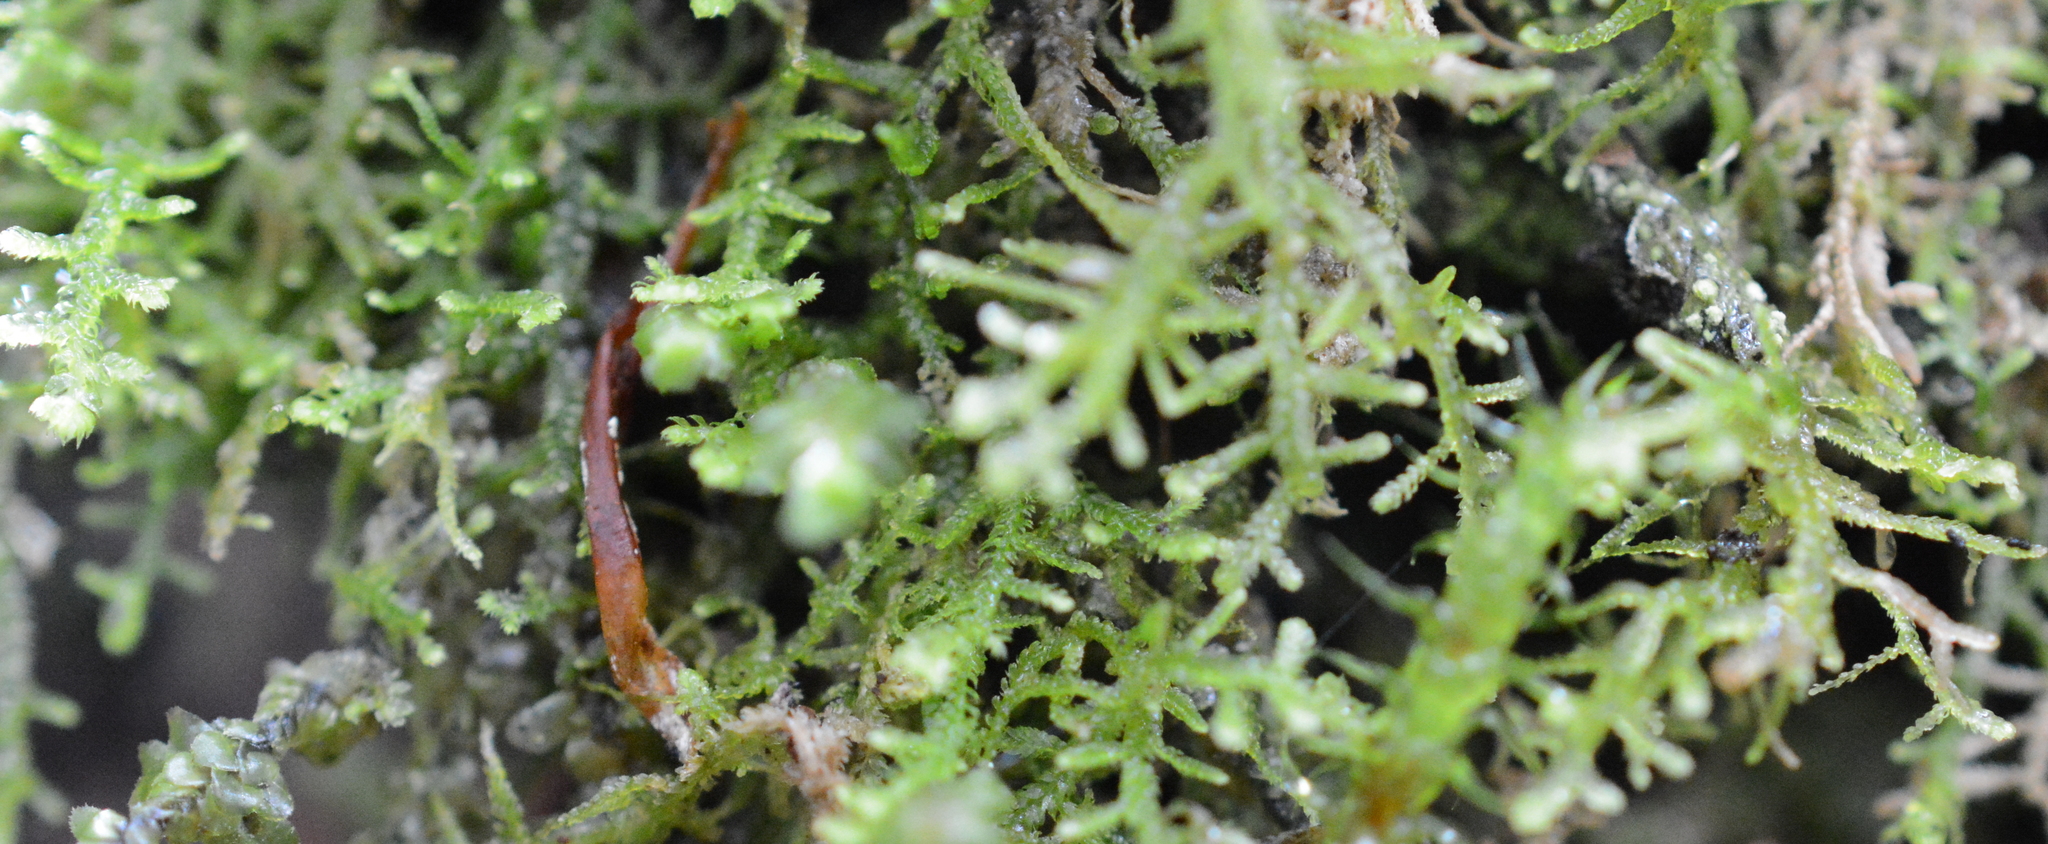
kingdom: Plantae
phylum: Marchantiophyta
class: Jungermanniopsida
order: Jungermanniales
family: Lepidoziaceae
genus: Lepidozia
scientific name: Lepidozia reptans
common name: Creeping fingerwort
